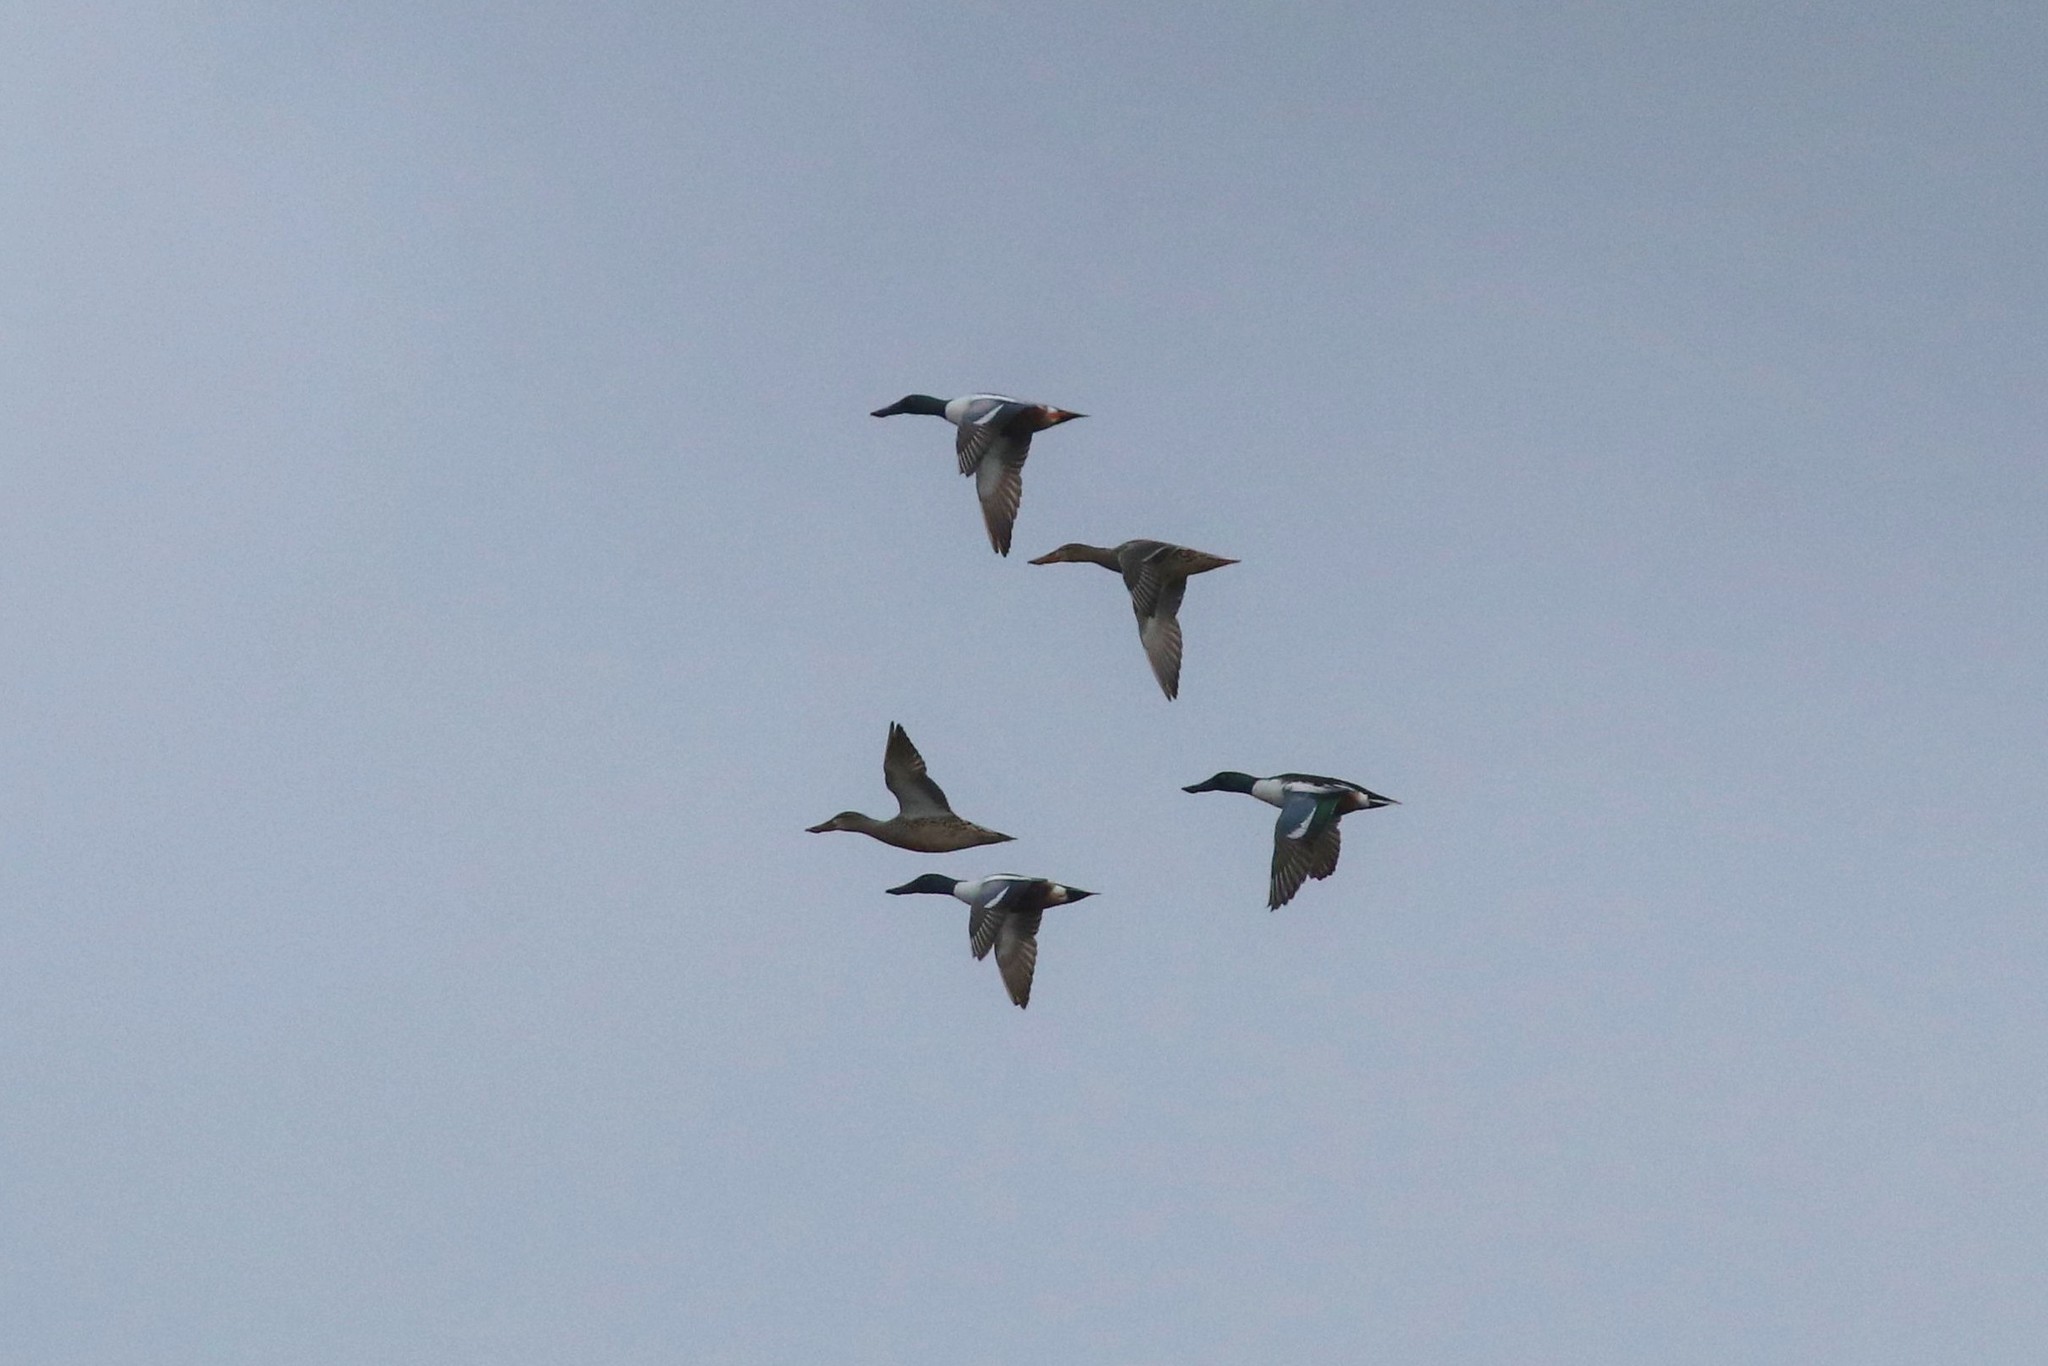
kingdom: Animalia
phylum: Chordata
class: Aves
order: Anseriformes
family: Anatidae
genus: Spatula
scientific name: Spatula clypeata
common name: Northern shoveler
